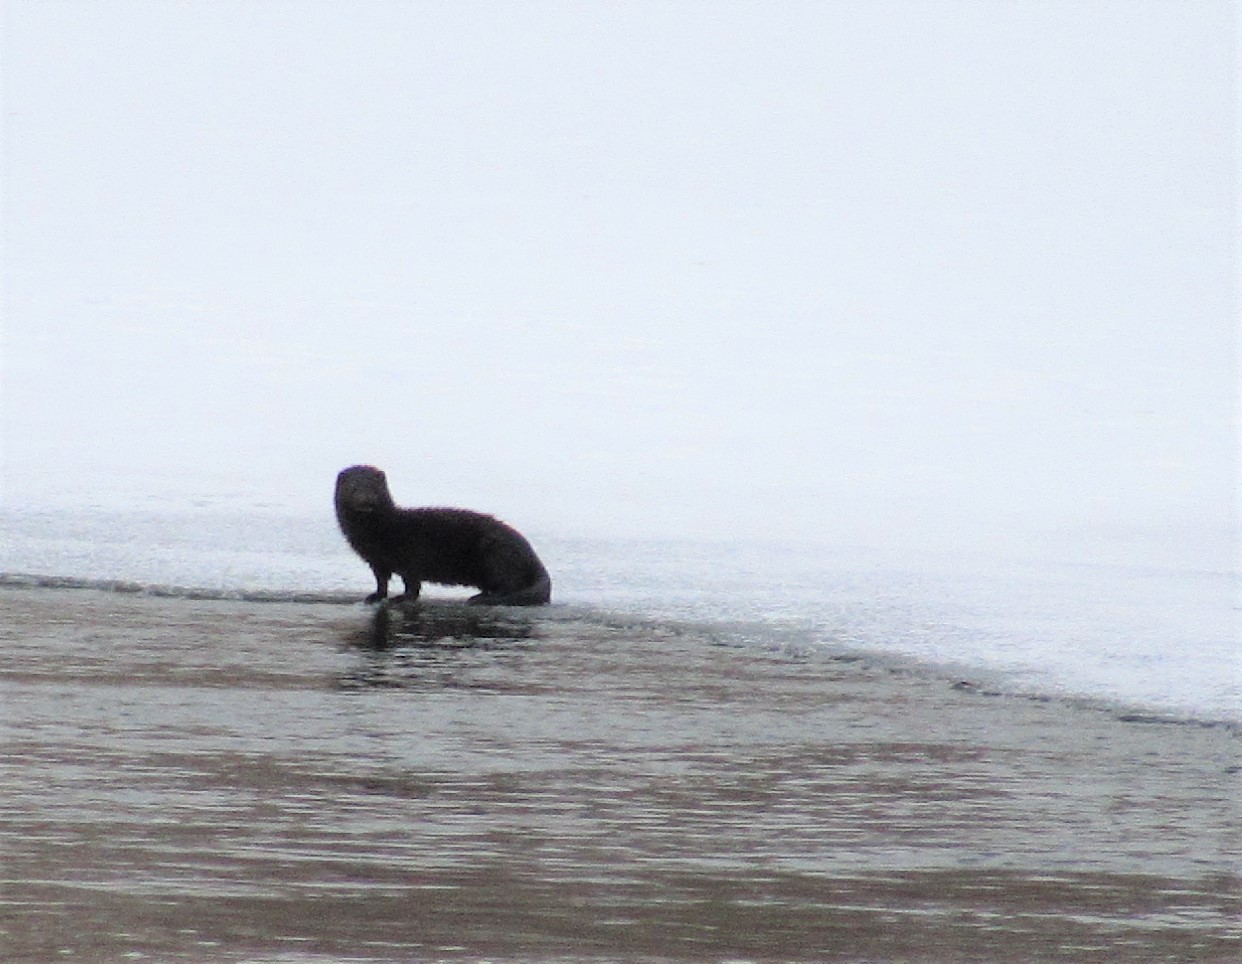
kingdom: Animalia
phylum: Chordata
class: Mammalia
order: Carnivora
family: Mustelidae
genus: Mustela
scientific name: Mustela
